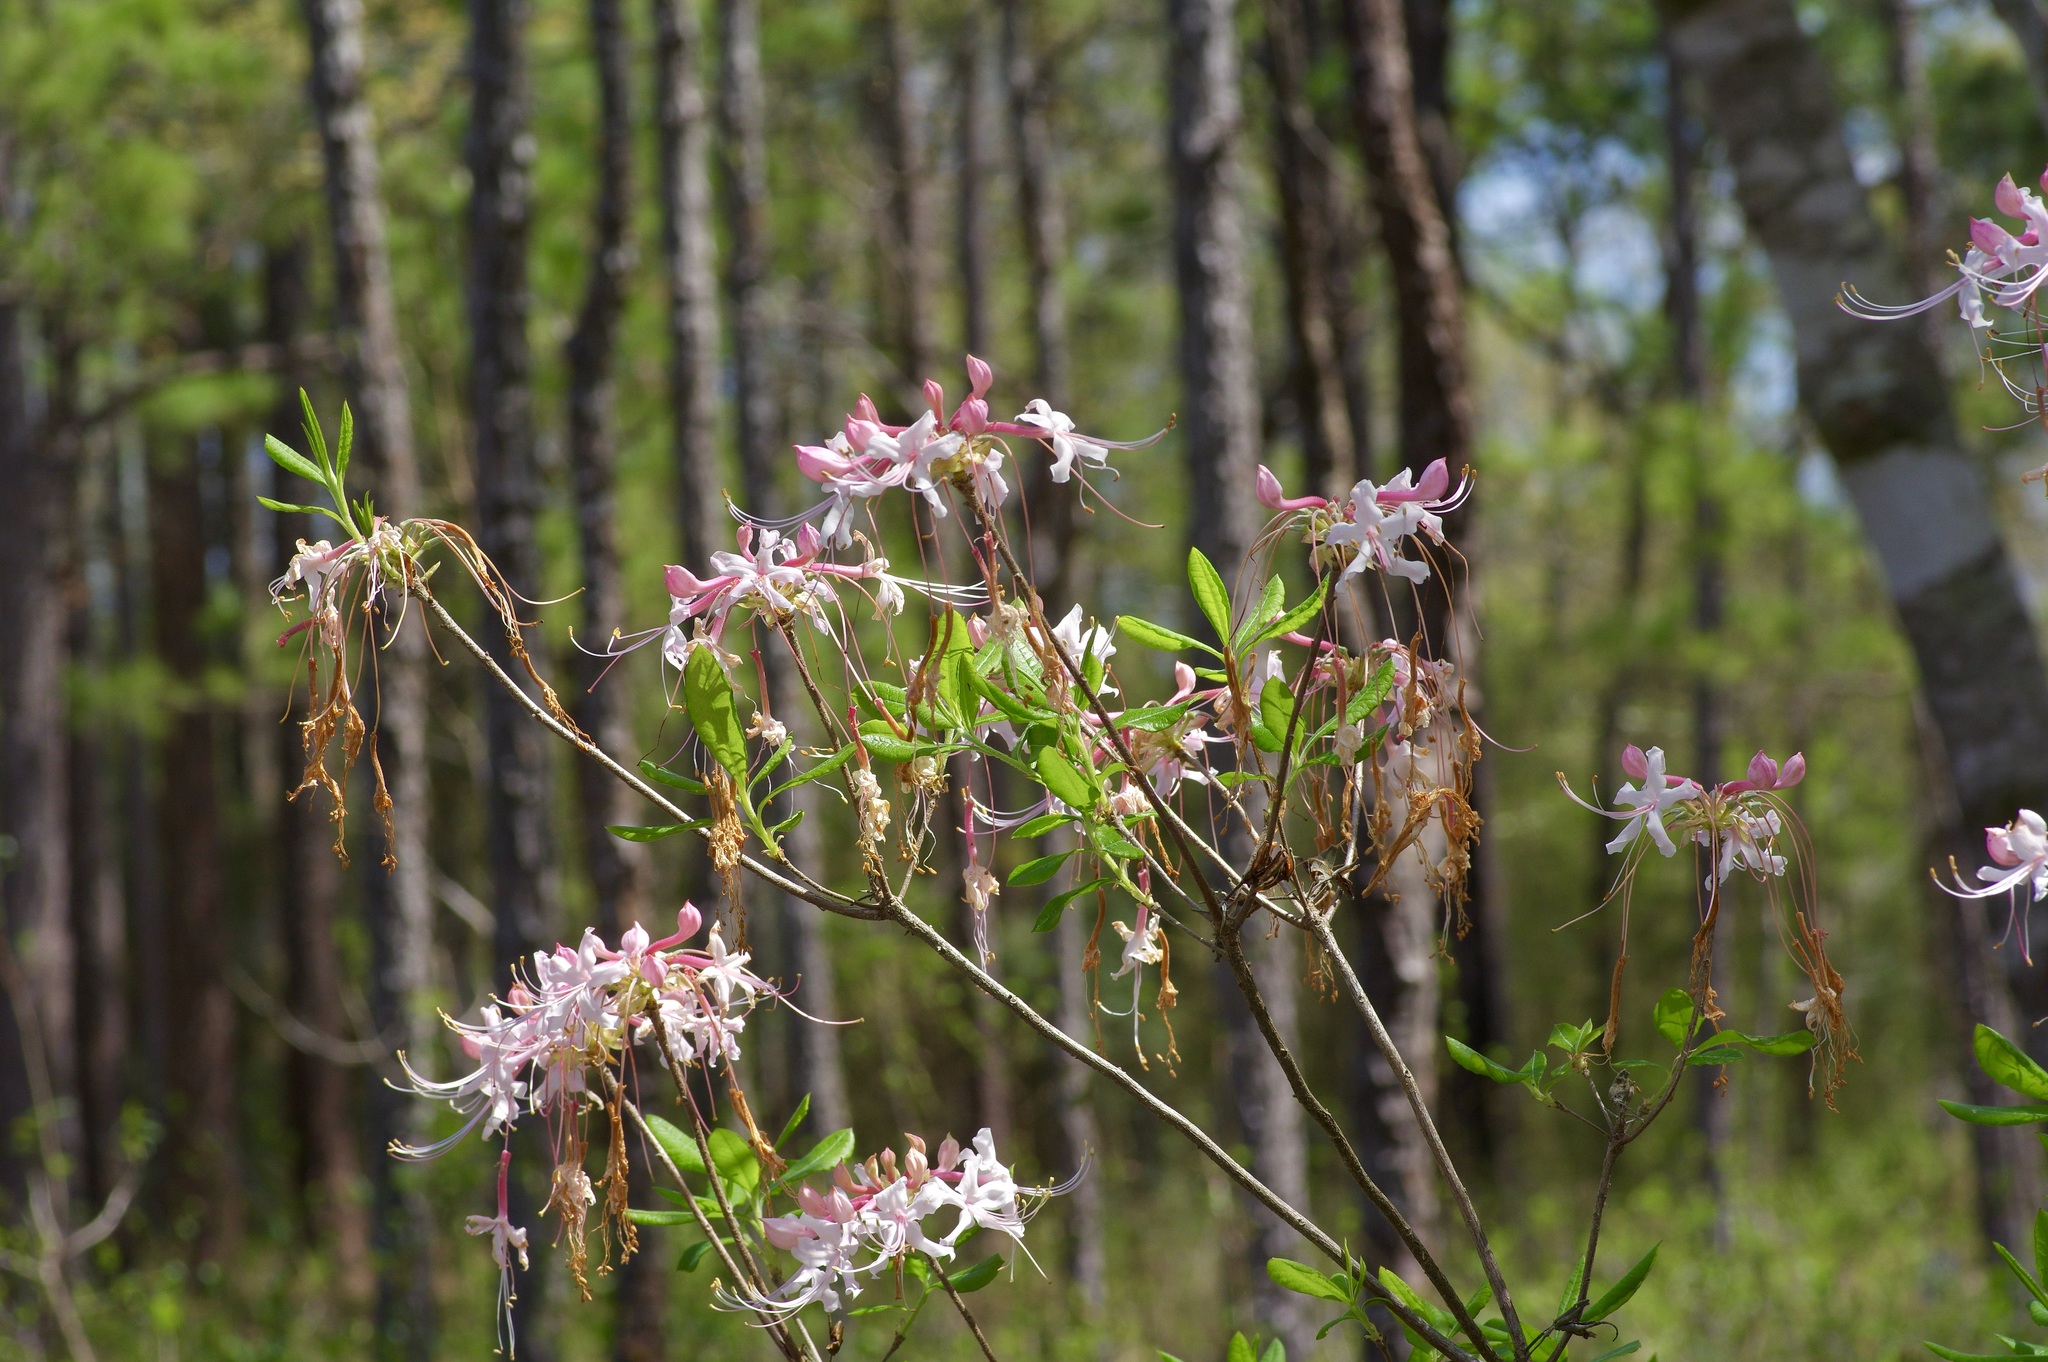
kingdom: Plantae
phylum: Tracheophyta
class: Magnoliopsida
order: Ericales
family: Ericaceae
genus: Rhododendron
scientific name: Rhododendron canescens
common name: Mountain azalea
